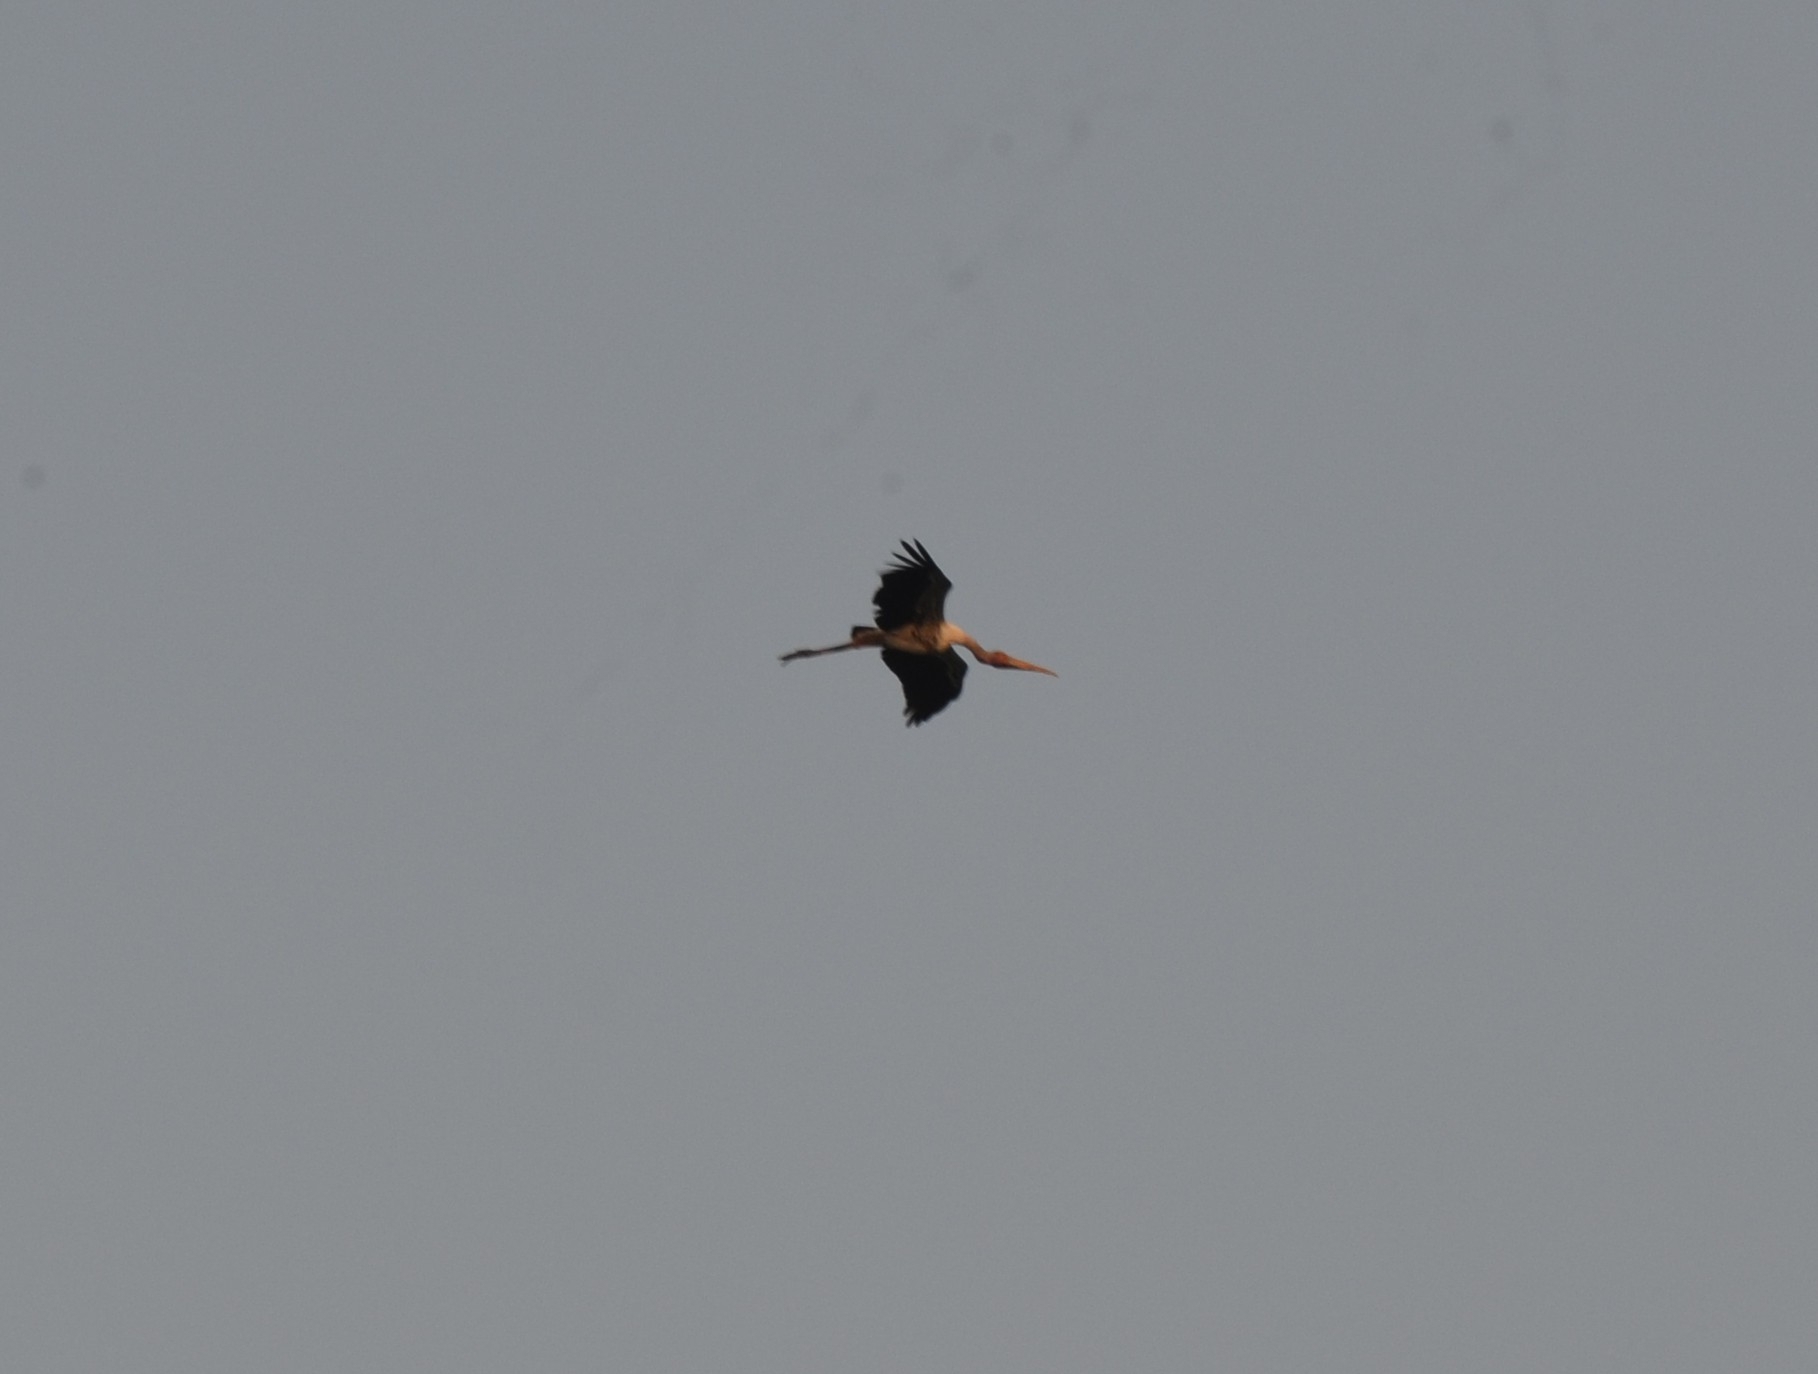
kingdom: Animalia
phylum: Chordata
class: Aves
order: Ciconiiformes
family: Ciconiidae
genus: Mycteria
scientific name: Mycteria leucocephala
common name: Painted stork
